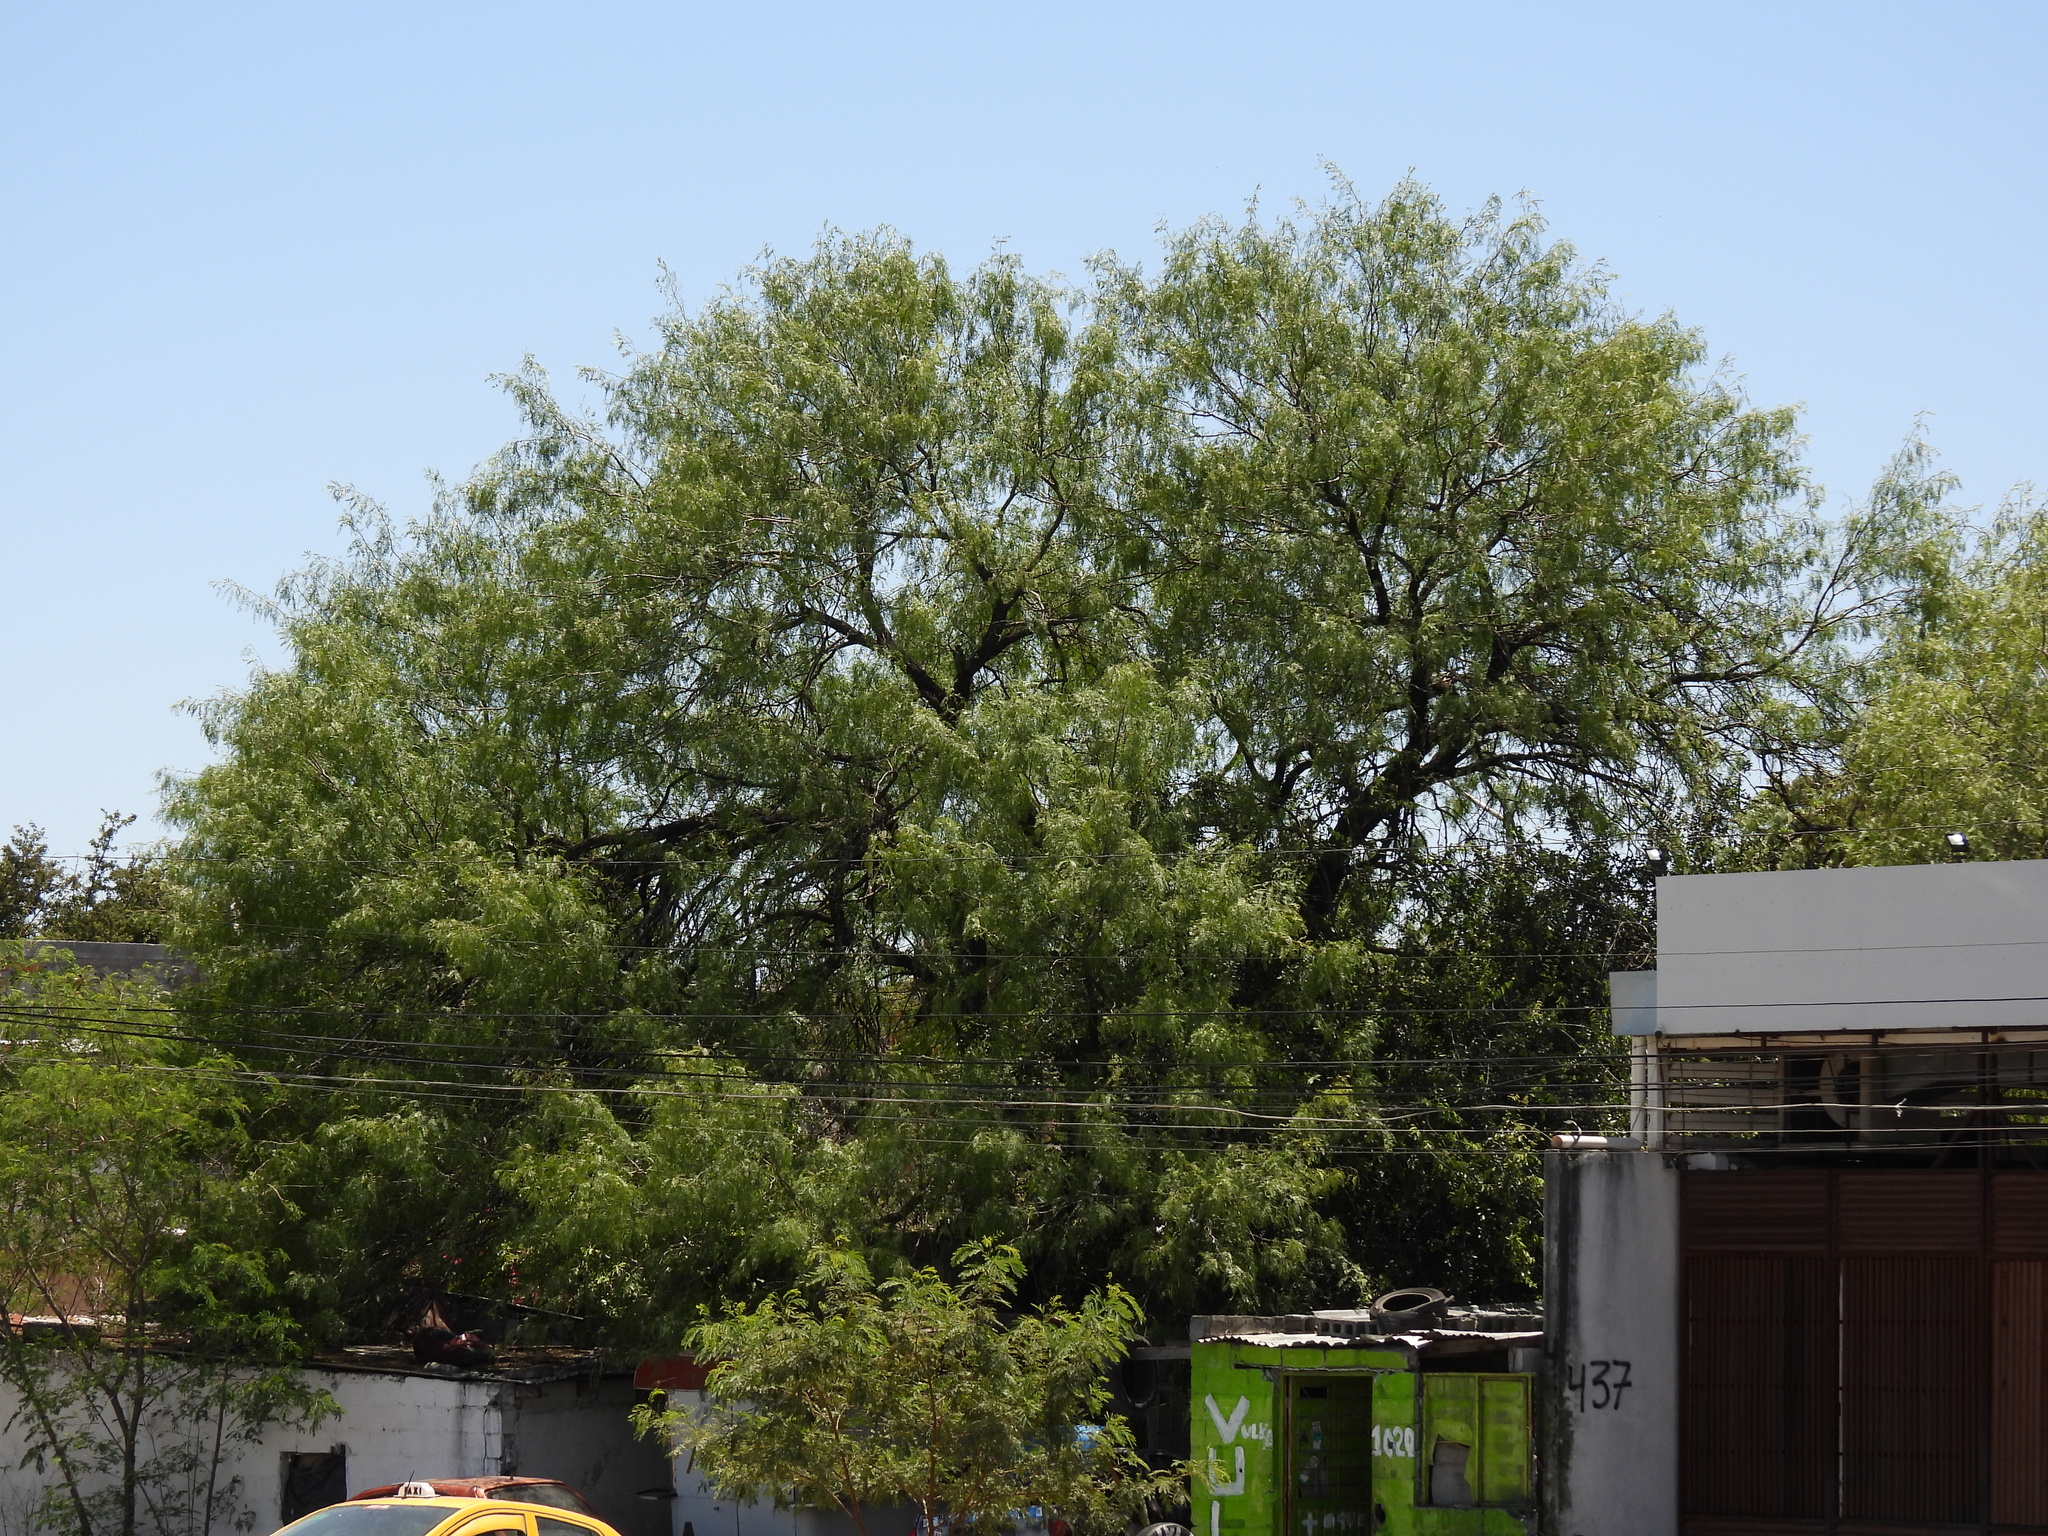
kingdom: Plantae
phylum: Tracheophyta
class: Magnoliopsida
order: Fabales
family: Fabaceae
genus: Prosopis
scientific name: Prosopis glandulosa
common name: Honey mesquite
